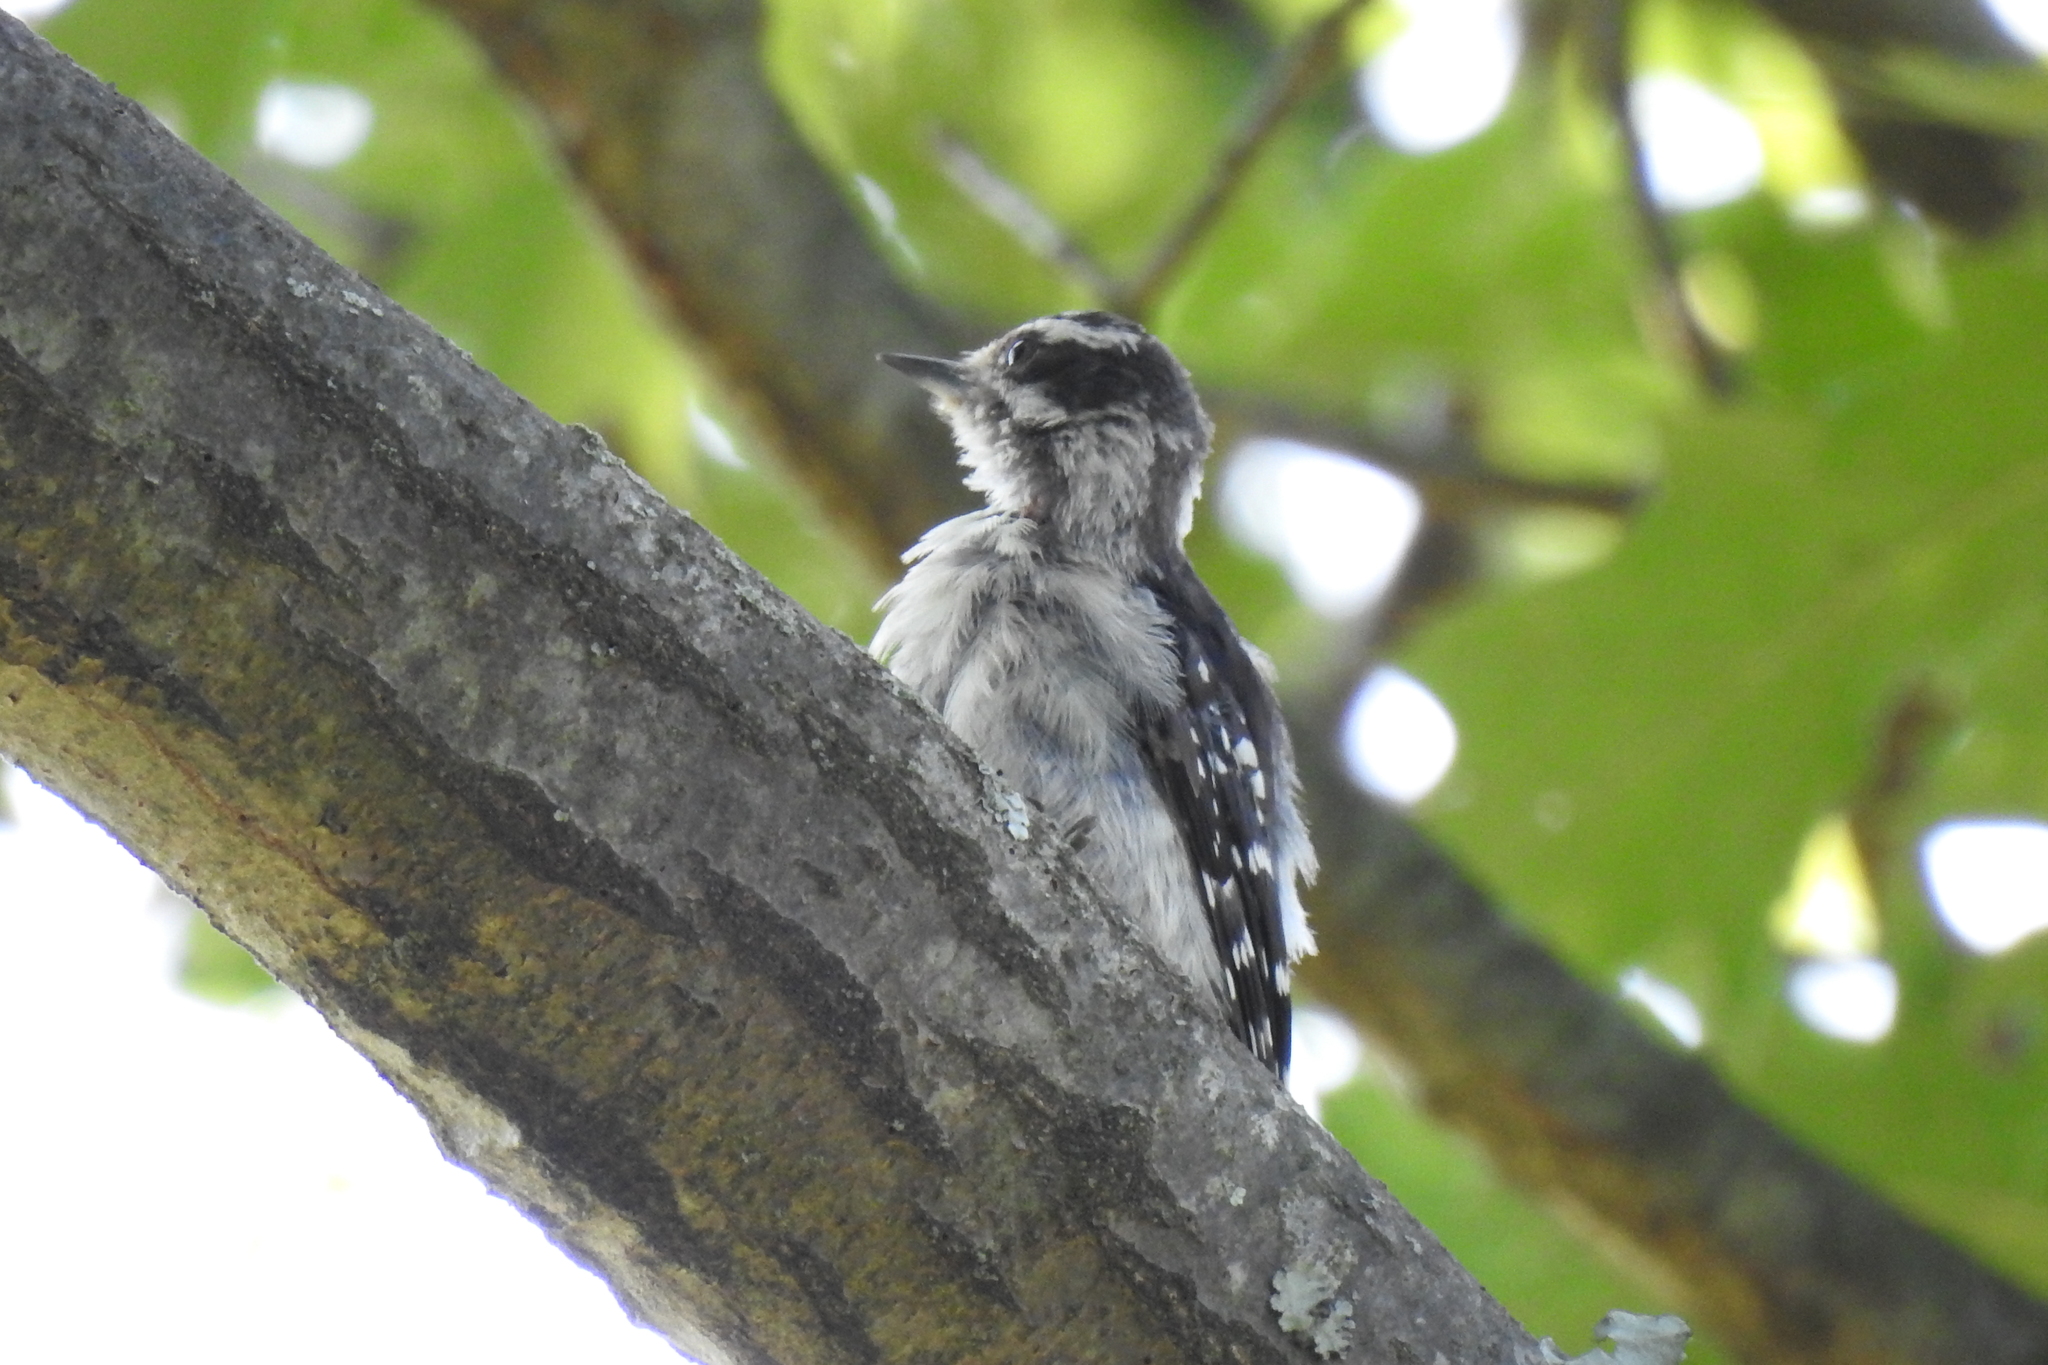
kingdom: Animalia
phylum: Chordata
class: Aves
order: Piciformes
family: Picidae
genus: Dryobates
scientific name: Dryobates pubescens
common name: Downy woodpecker
